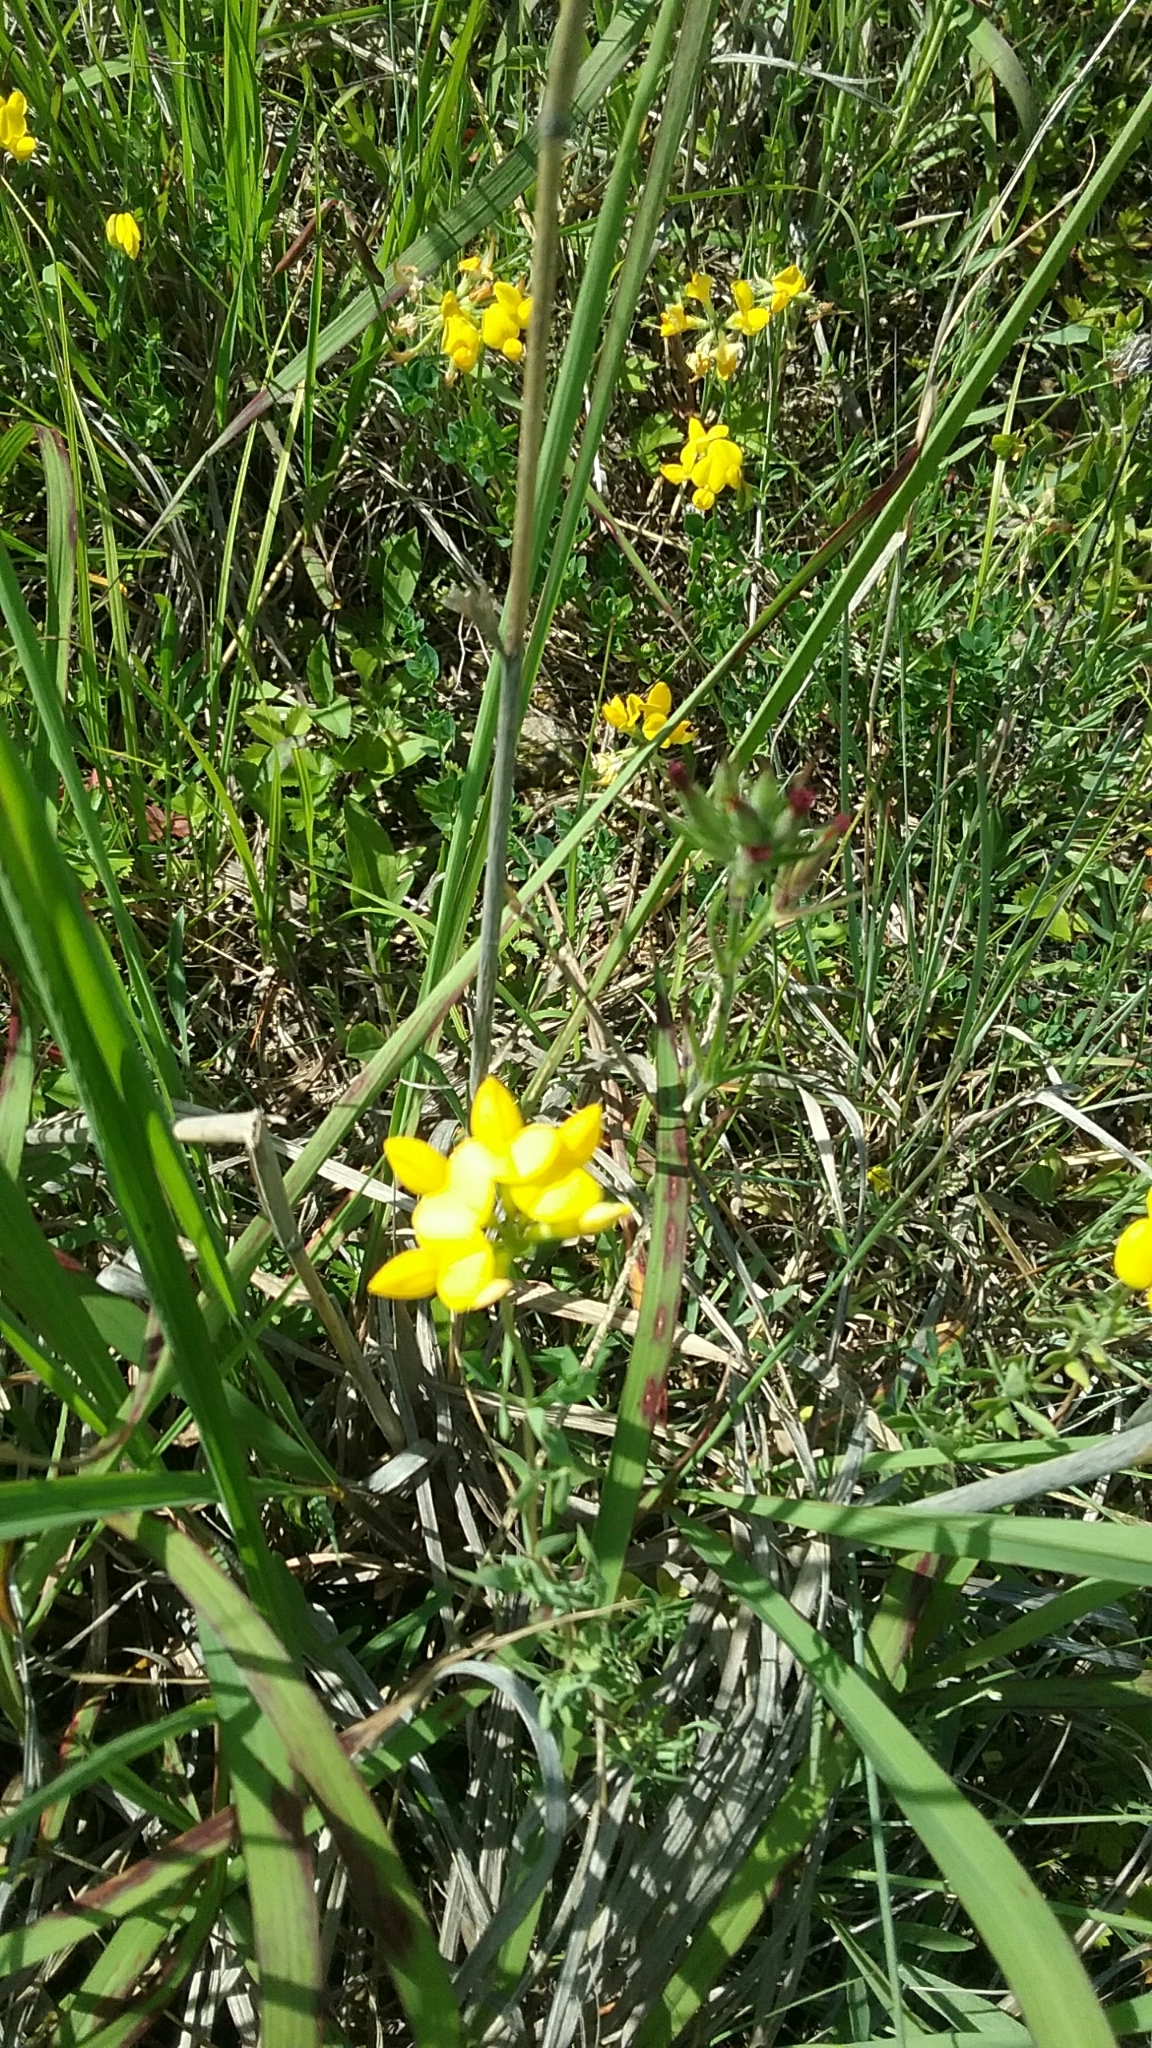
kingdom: Plantae
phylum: Tracheophyta
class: Magnoliopsida
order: Fabales
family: Fabaceae
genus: Lotus
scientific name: Lotus corniculatus
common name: Common bird's-foot-trefoil
